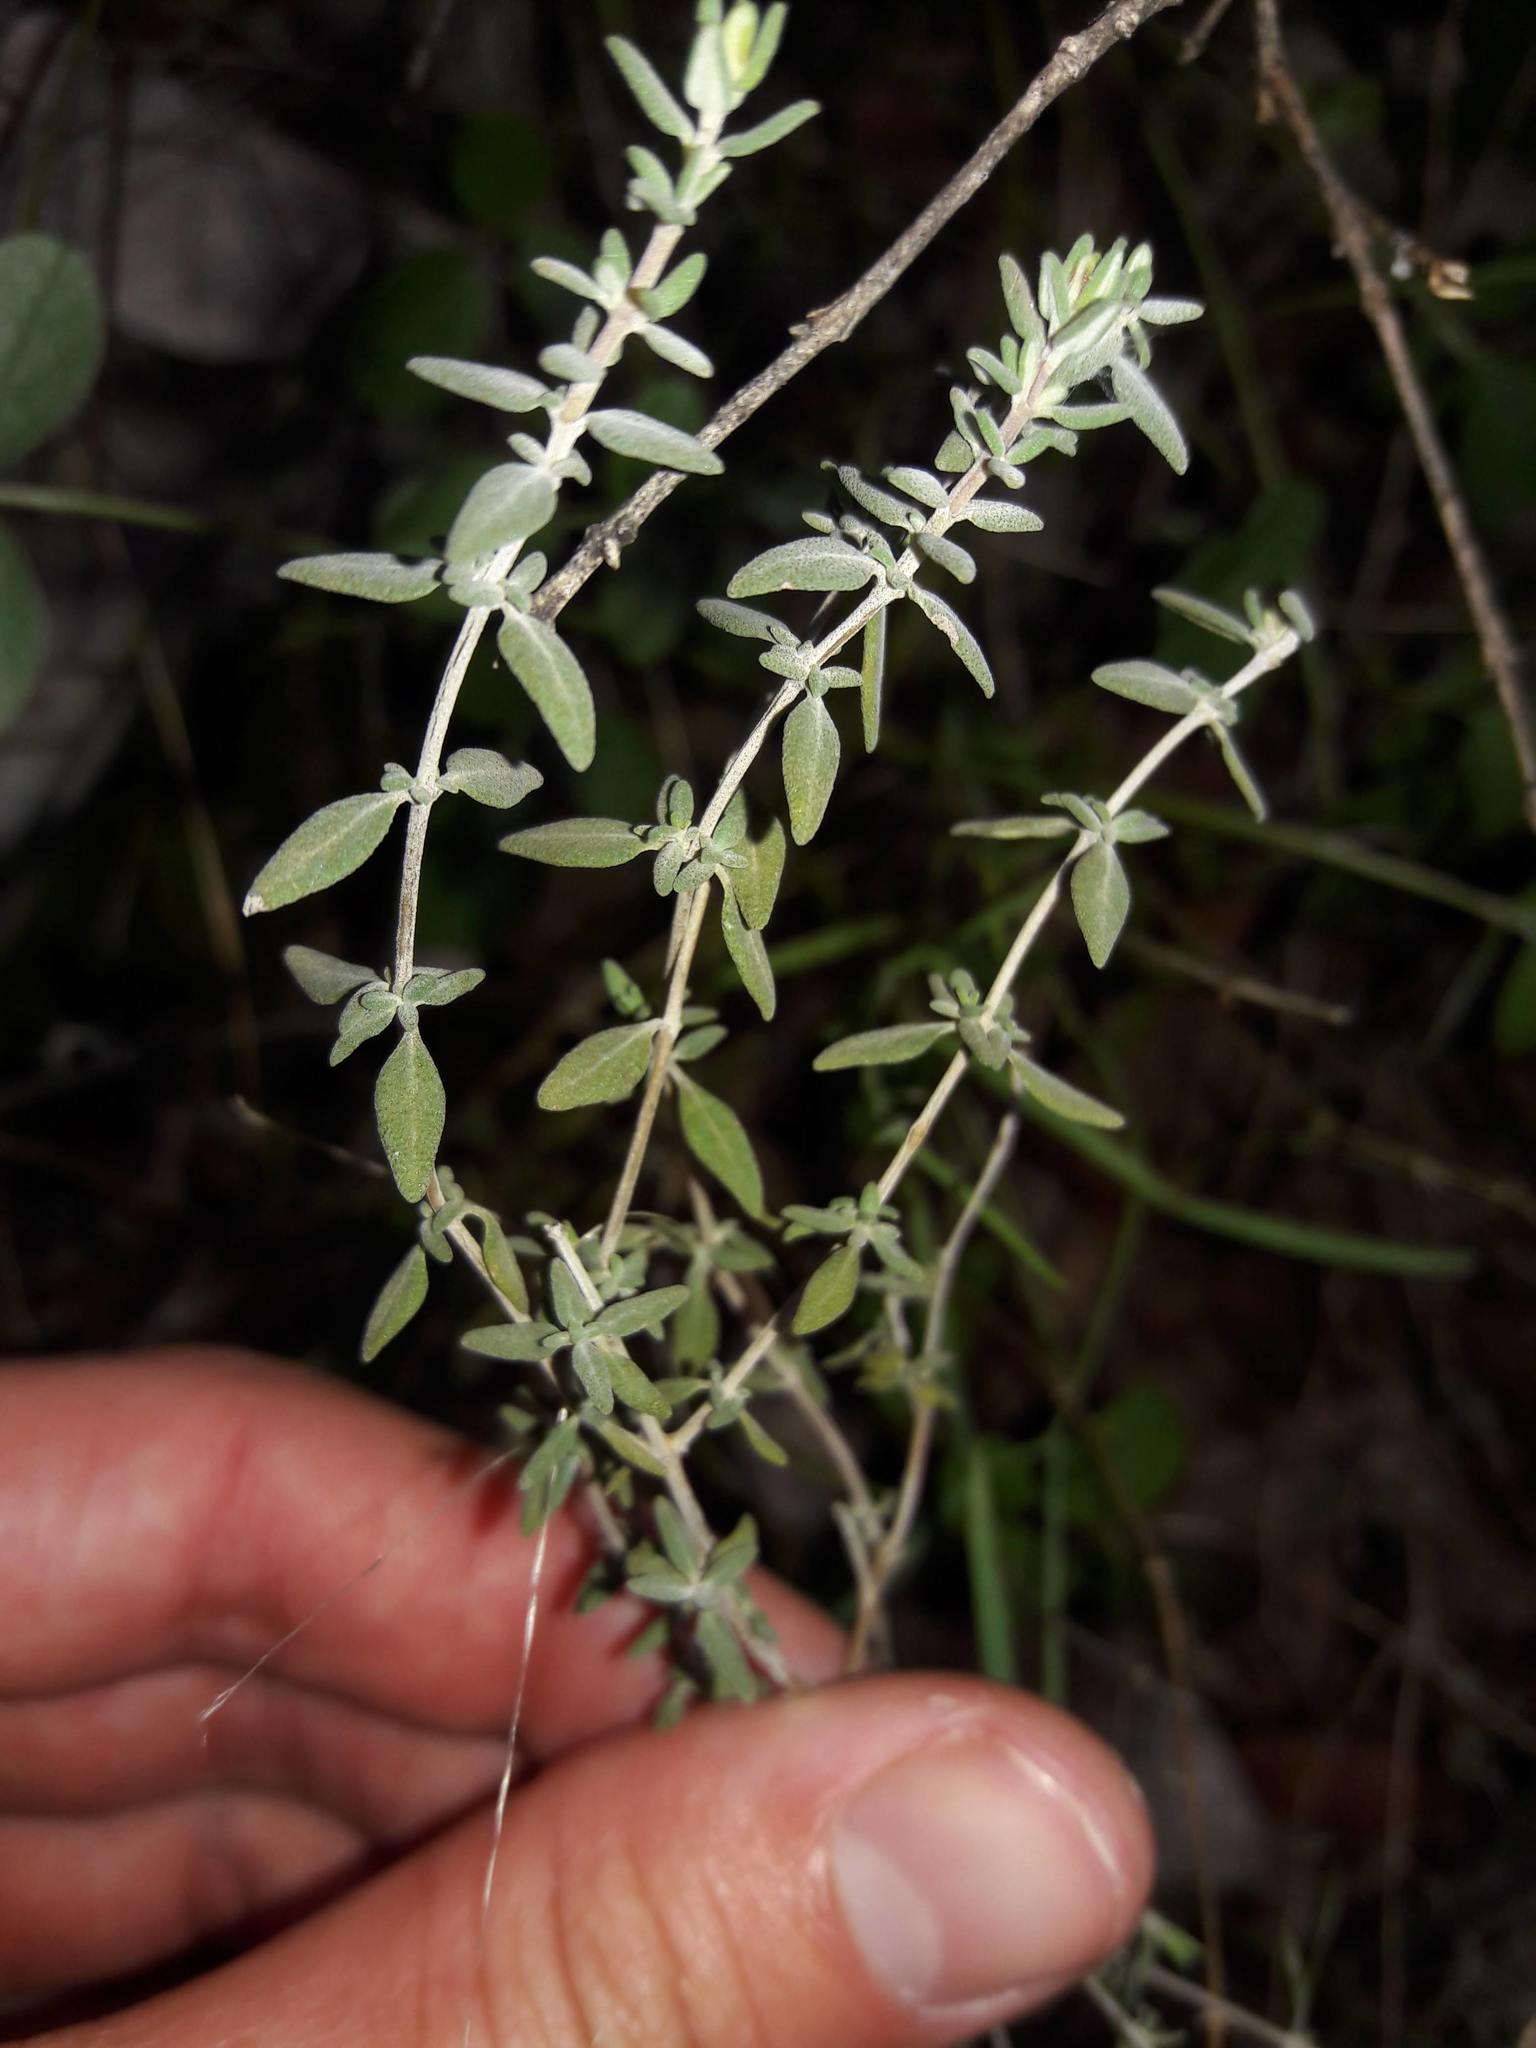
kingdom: Plantae
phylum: Tracheophyta
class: Magnoliopsida
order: Lamiales
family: Lamiaceae
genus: Thymus
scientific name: Thymus vulgaris
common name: Garden thyme
